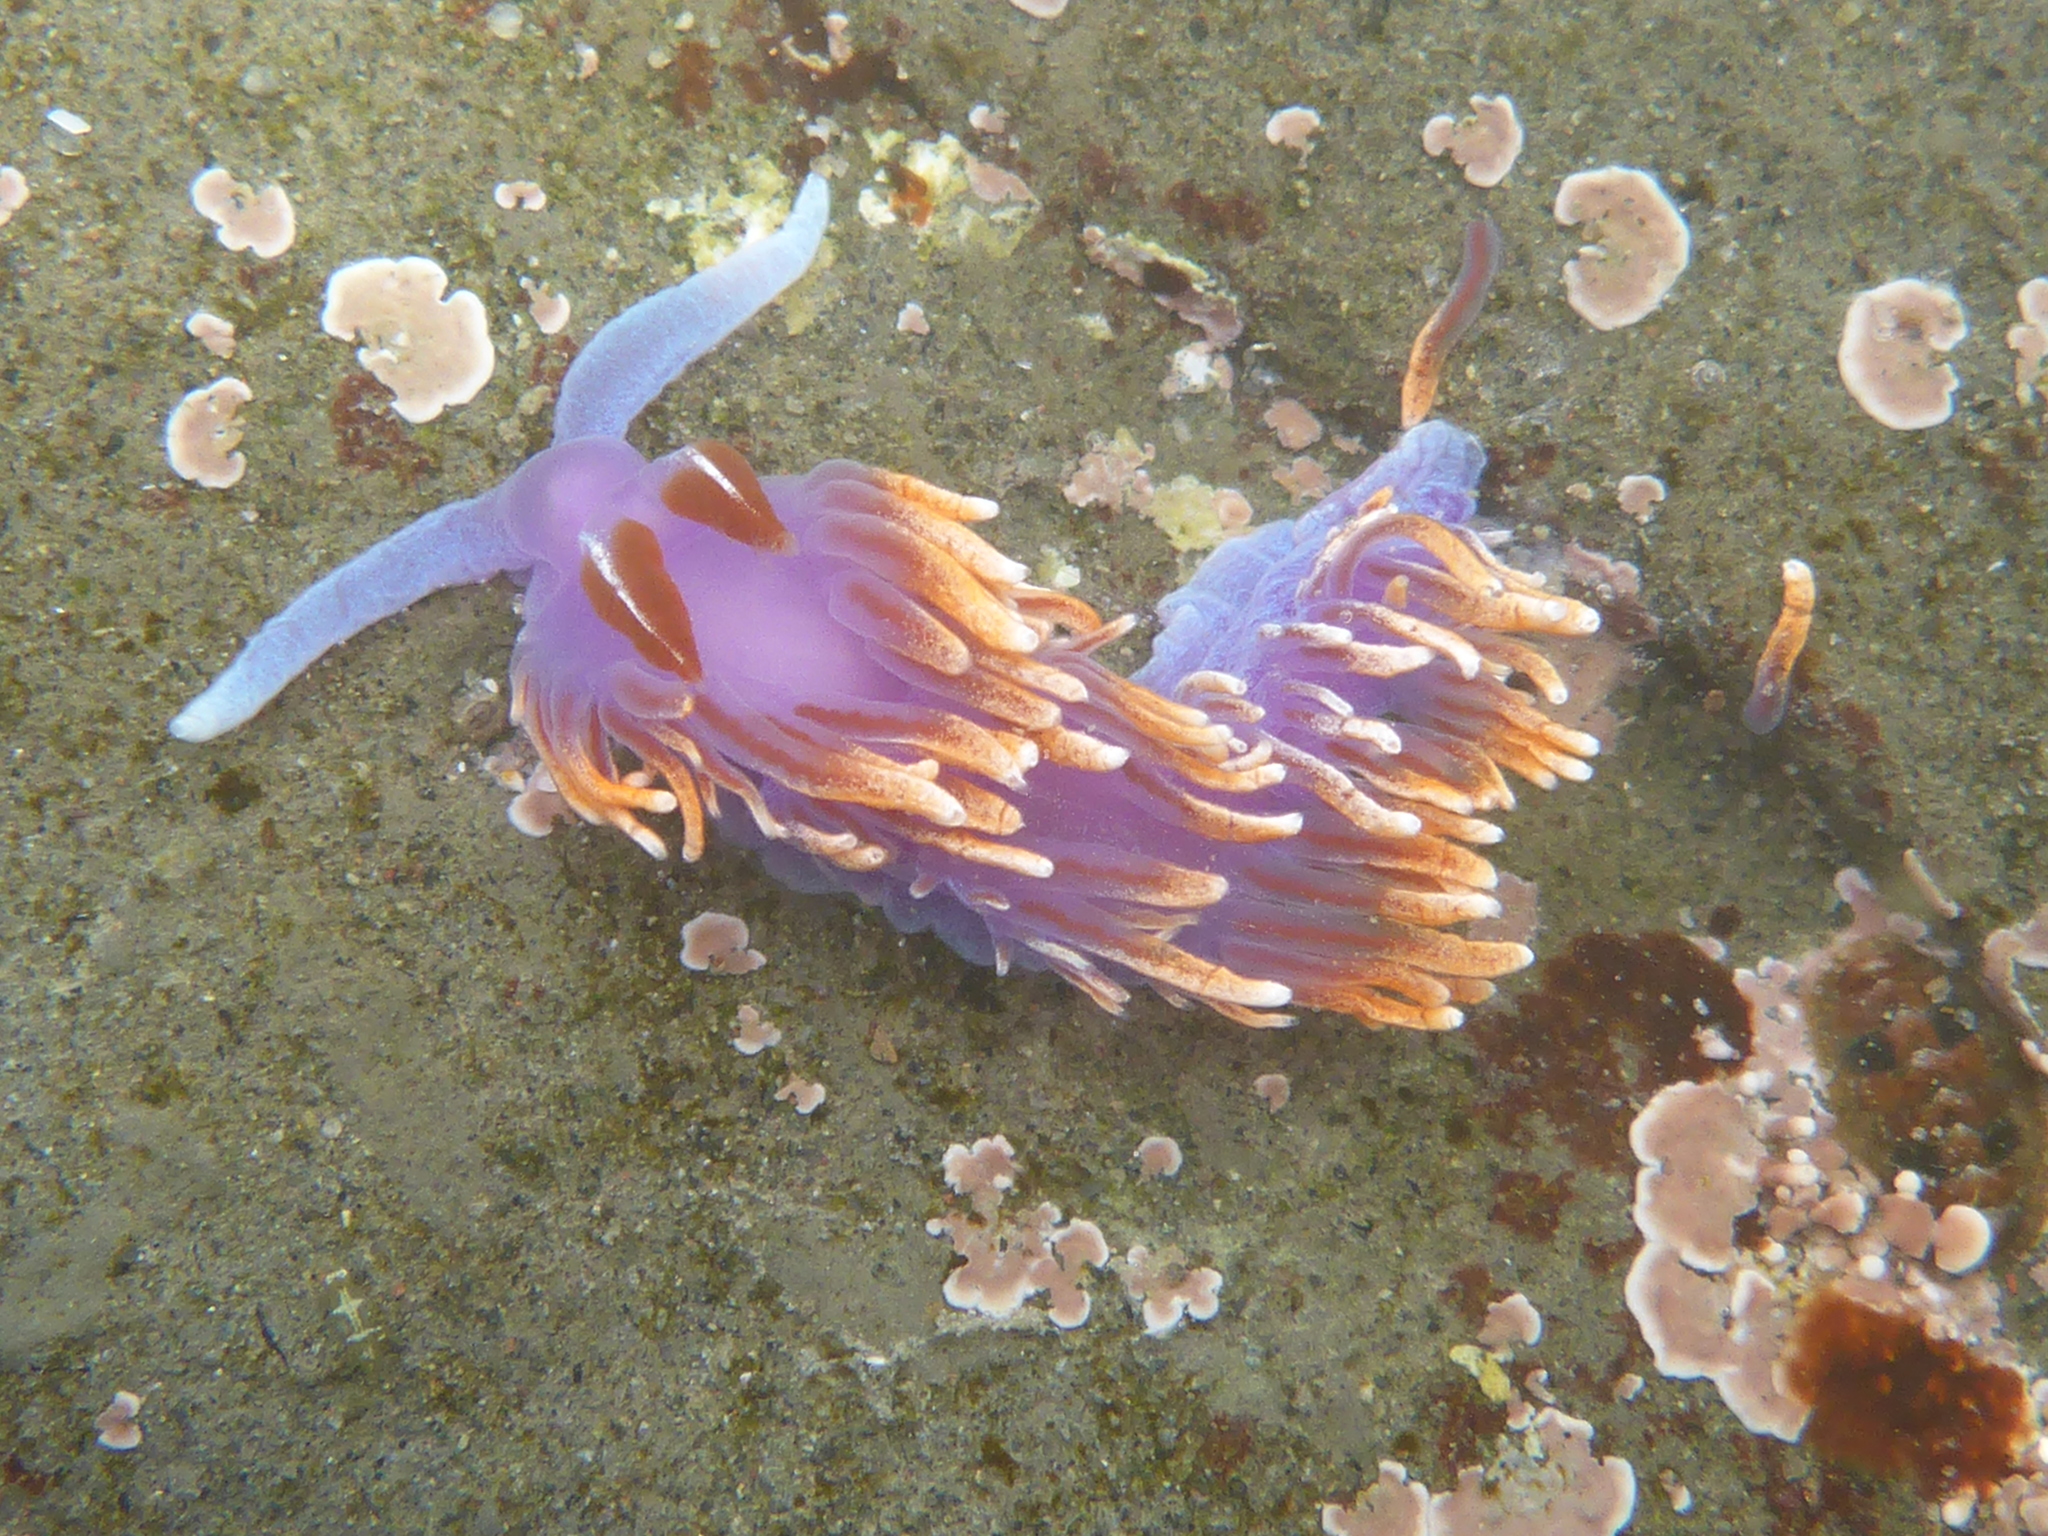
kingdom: Animalia
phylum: Mollusca
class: Gastropoda
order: Nudibranchia
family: Flabellinopsidae
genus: Flabellinopsis
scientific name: Flabellinopsis iodinea
